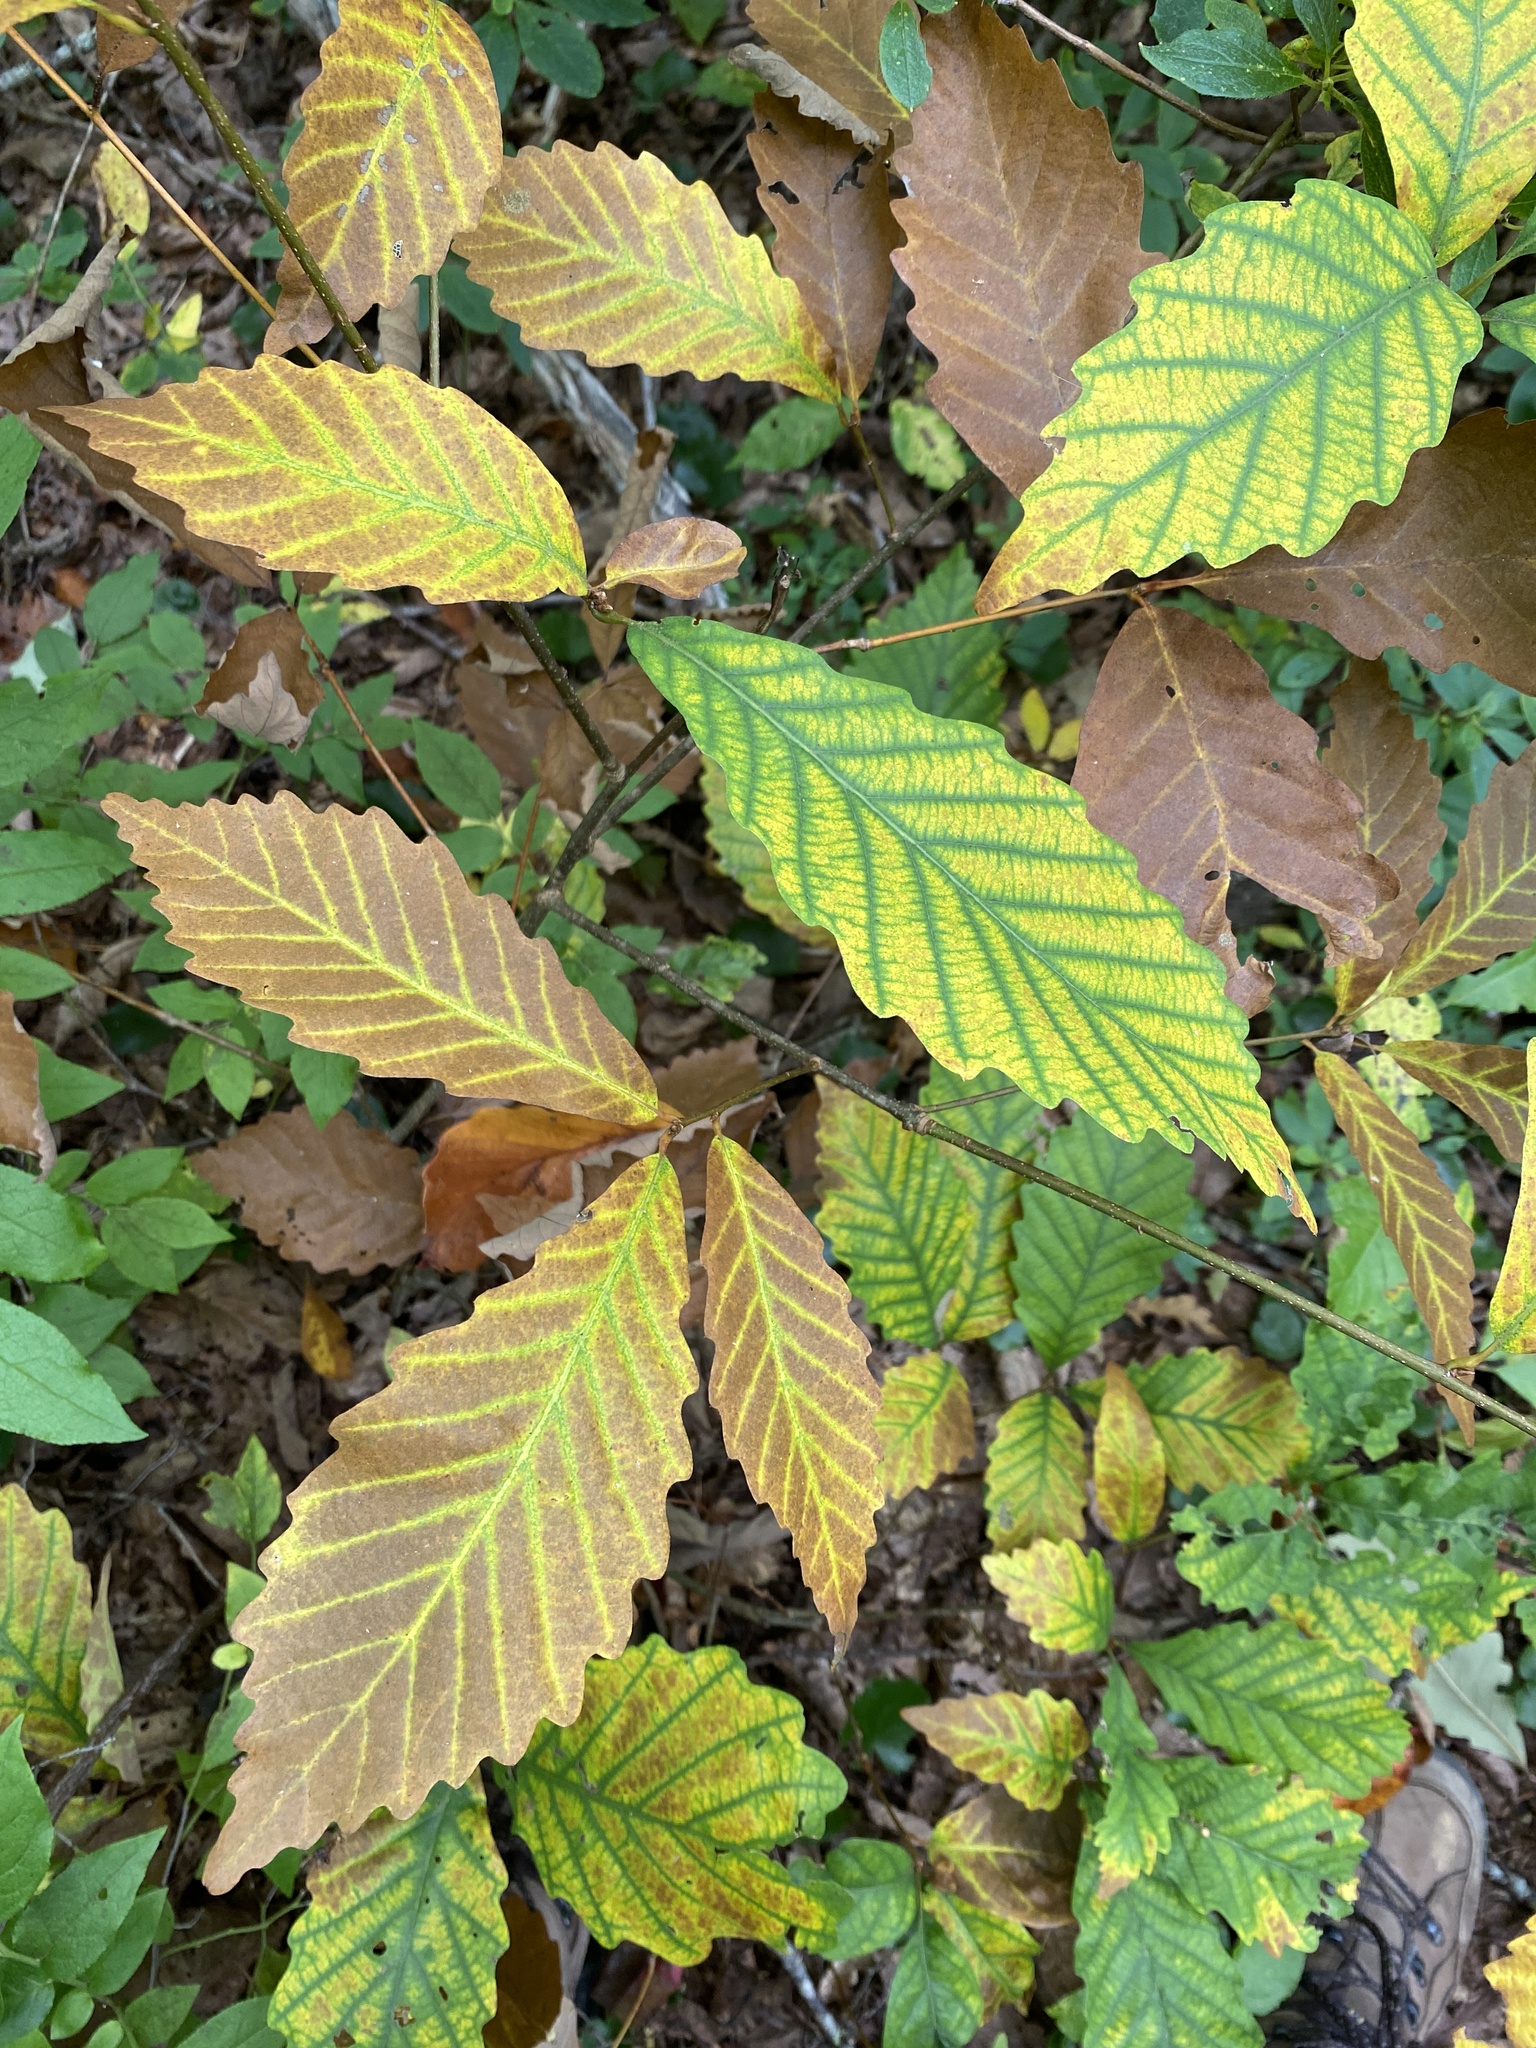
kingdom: Plantae
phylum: Tracheophyta
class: Magnoliopsida
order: Fagales
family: Fagaceae
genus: Quercus
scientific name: Quercus montana
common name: Chestnut oak
